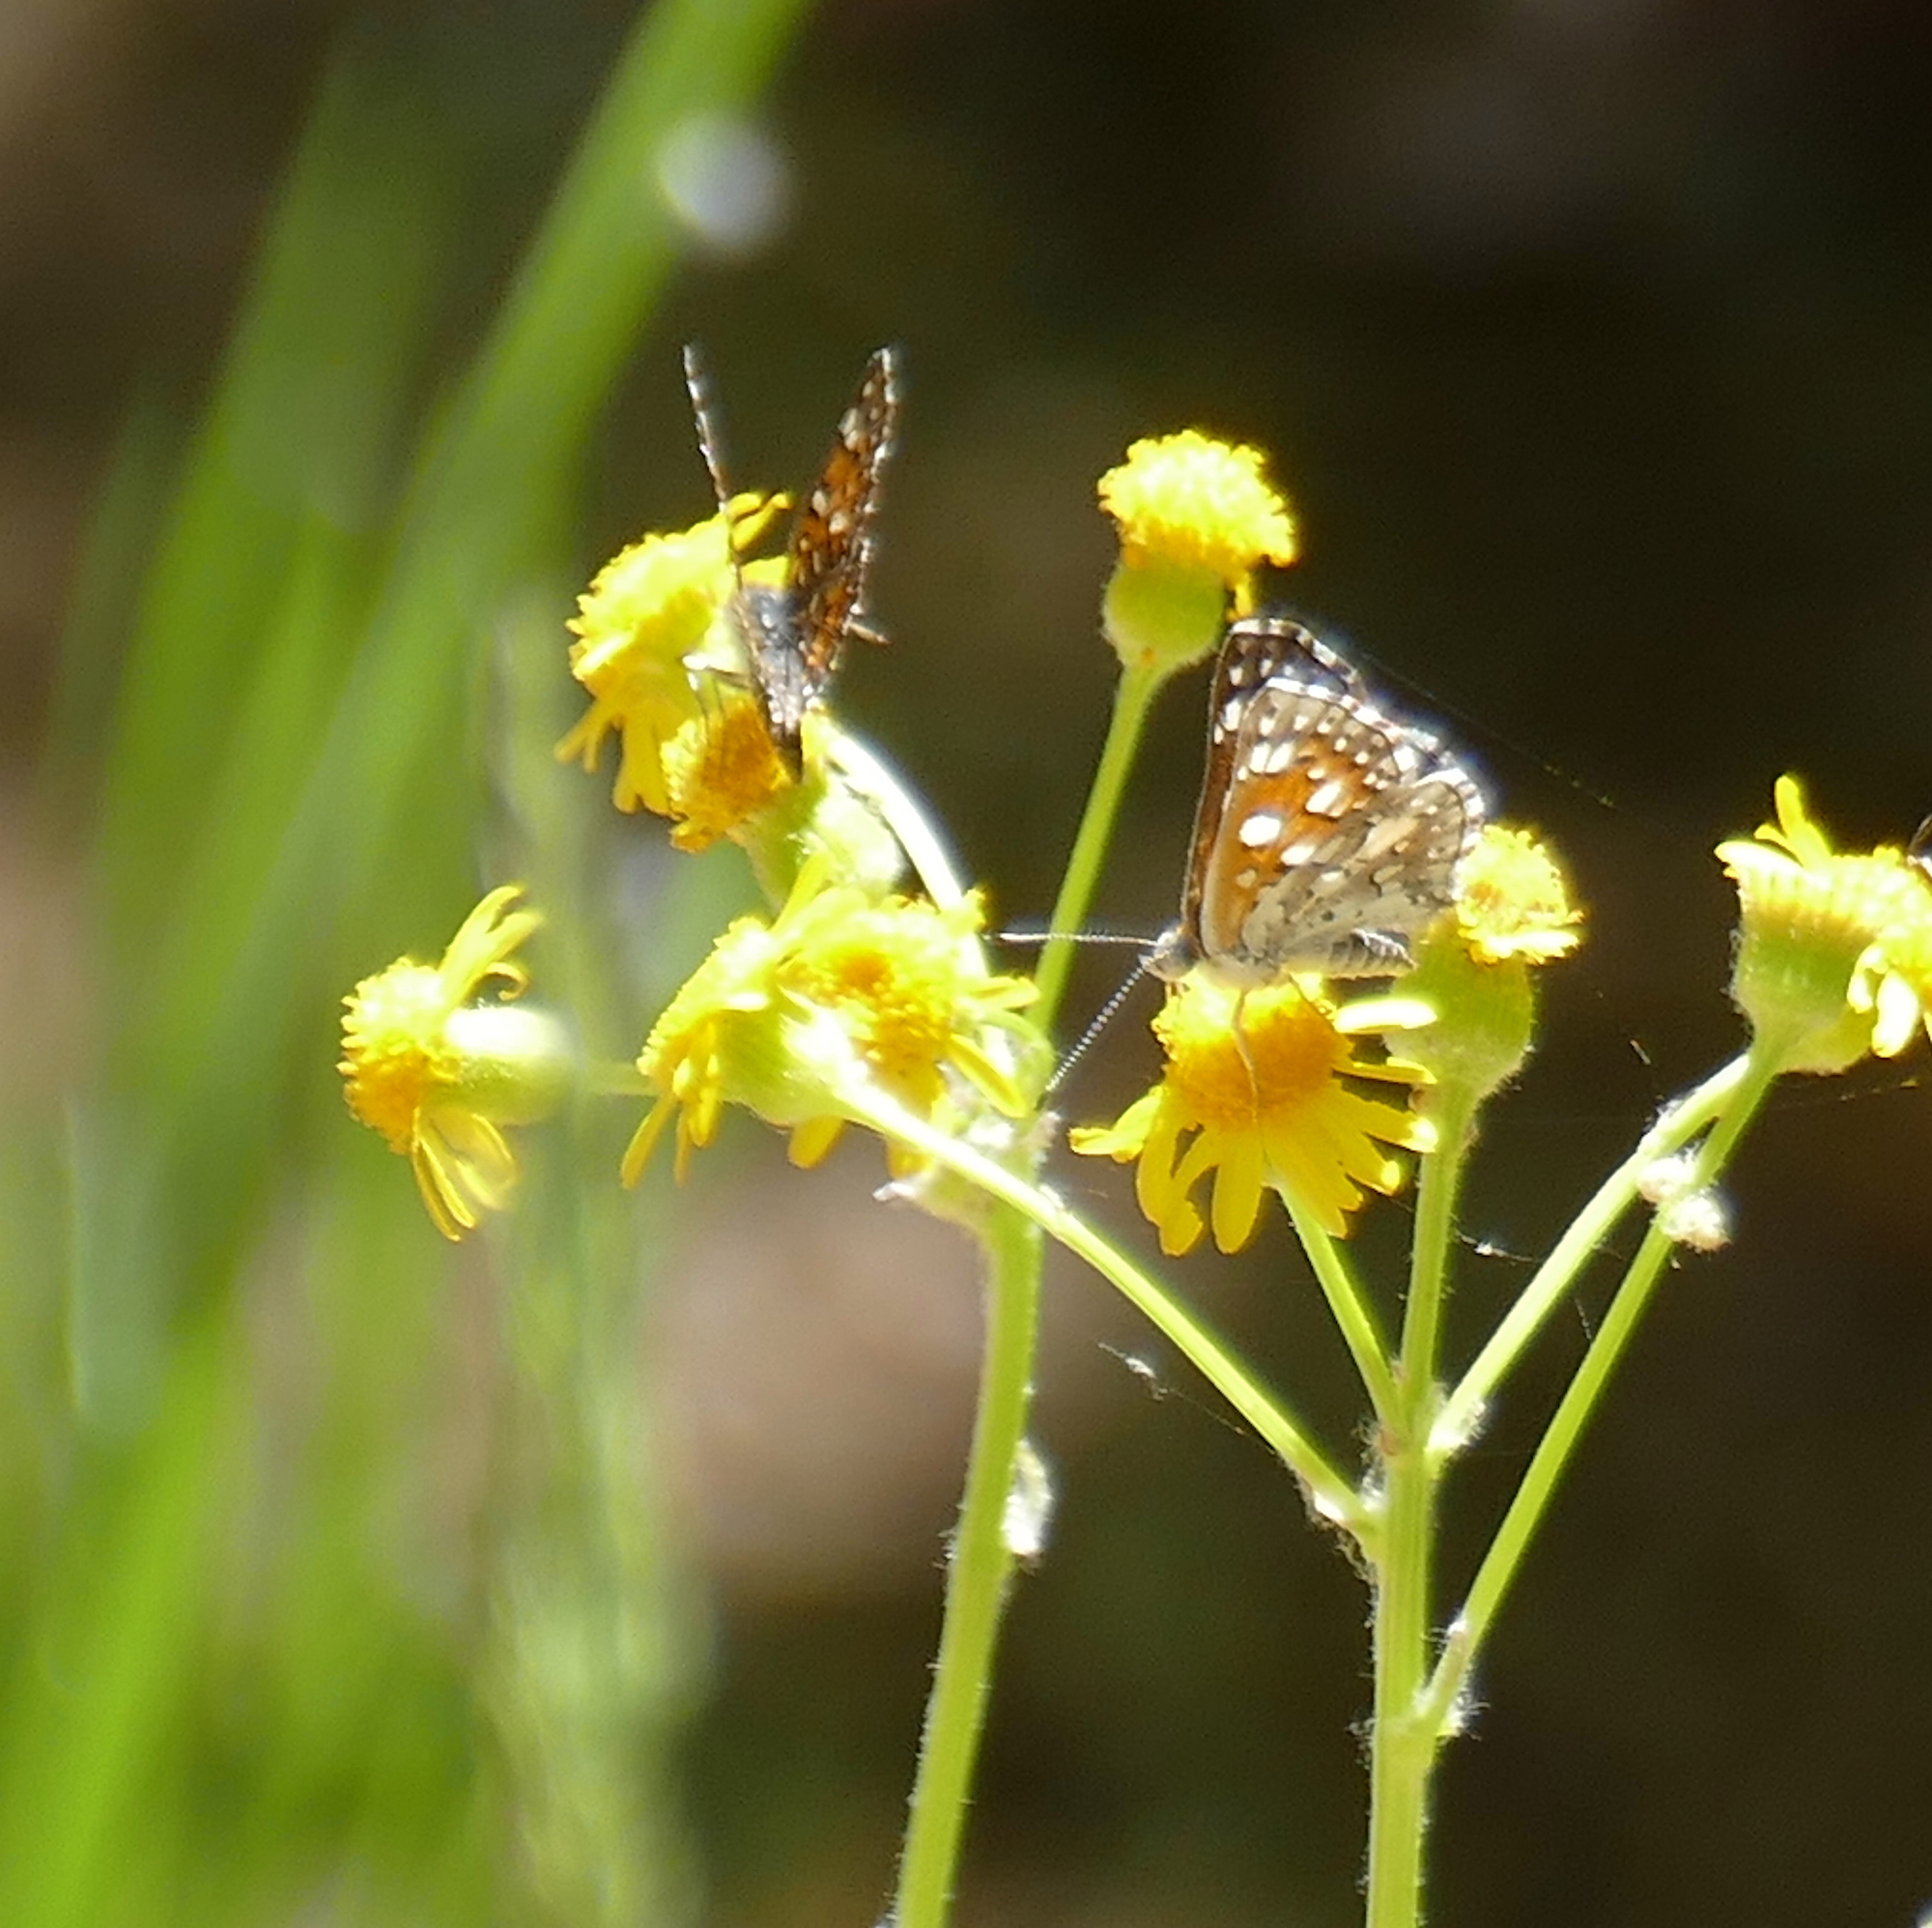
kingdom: Animalia
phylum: Arthropoda
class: Insecta
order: Lepidoptera
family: Riodinidae
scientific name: Riodinidae
